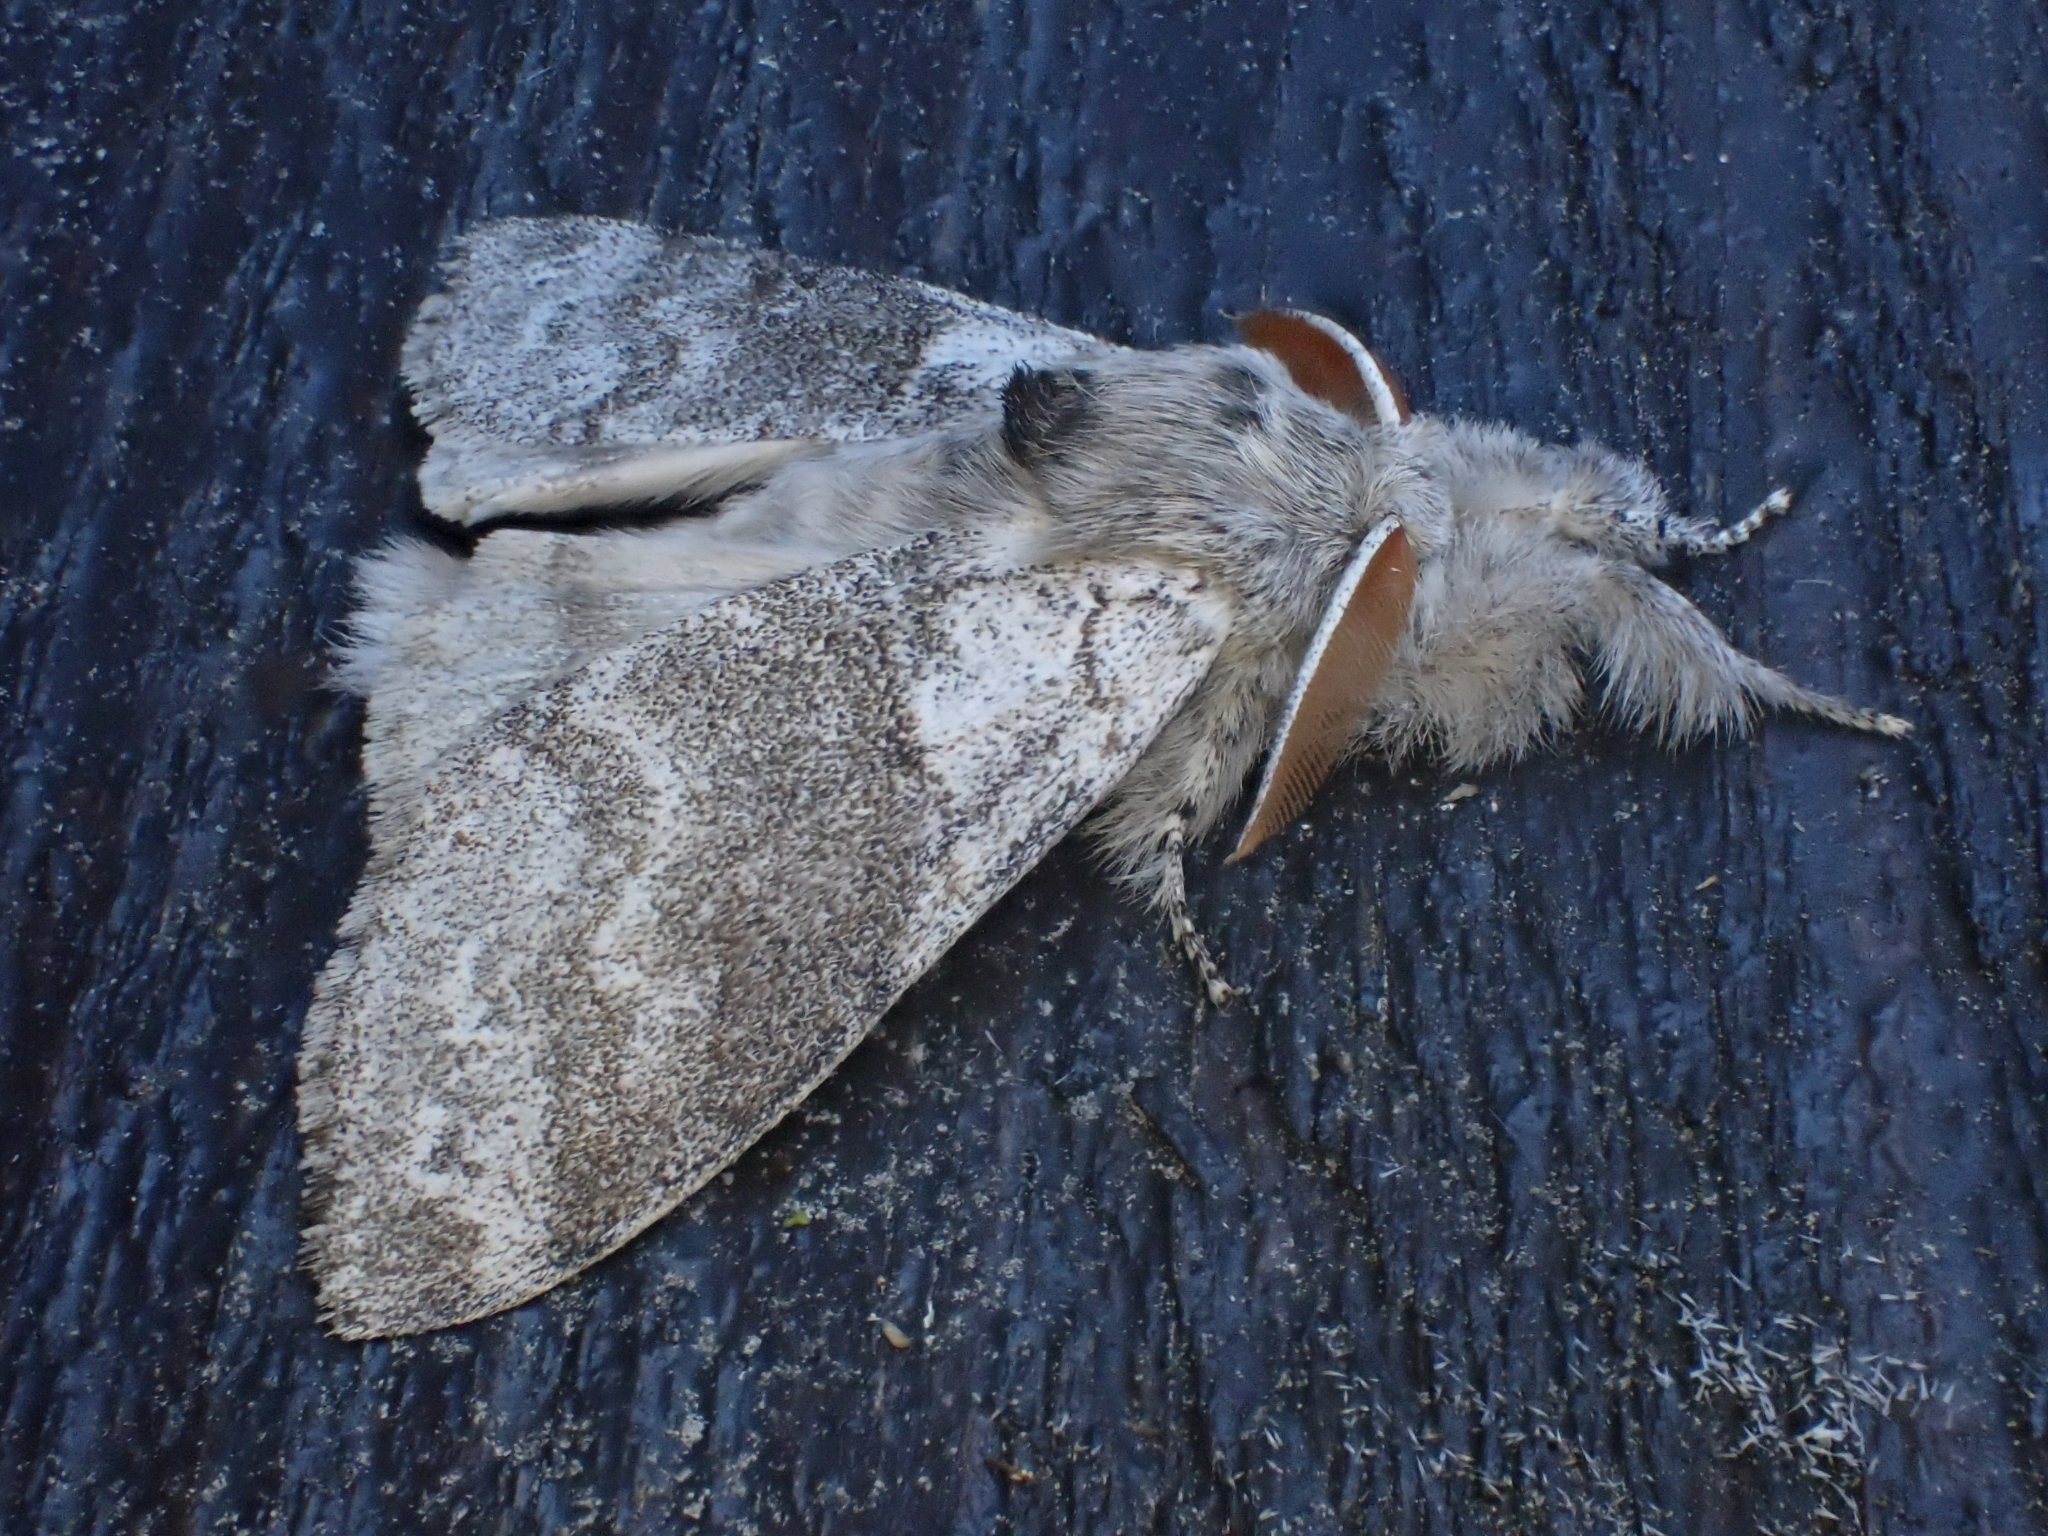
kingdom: Animalia
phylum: Arthropoda
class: Insecta
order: Lepidoptera
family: Erebidae
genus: Calliteara
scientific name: Calliteara pudibunda
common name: Pale tussock
